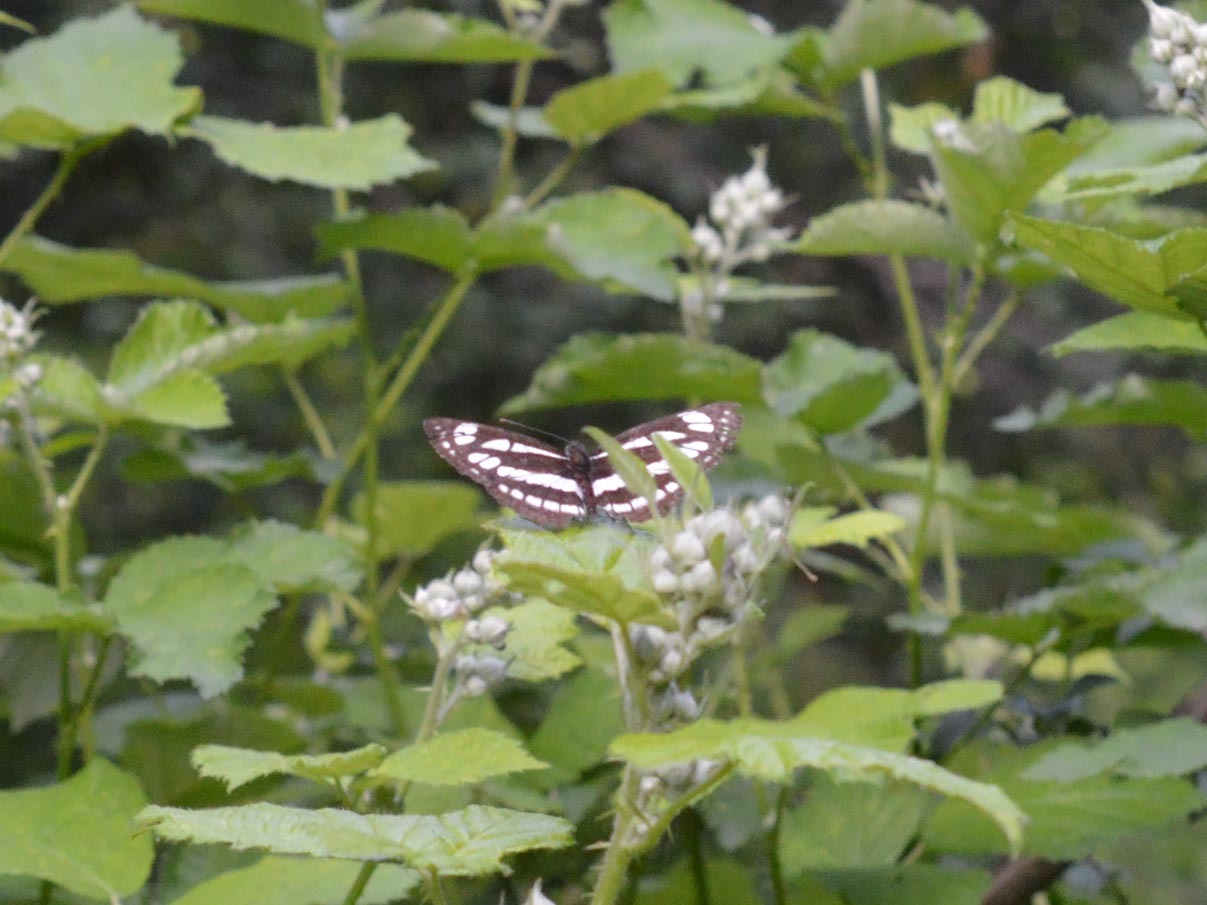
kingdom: Animalia
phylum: Arthropoda
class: Insecta
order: Lepidoptera
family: Nymphalidae
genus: Neptis
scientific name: Neptis sappho
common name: Common glider
